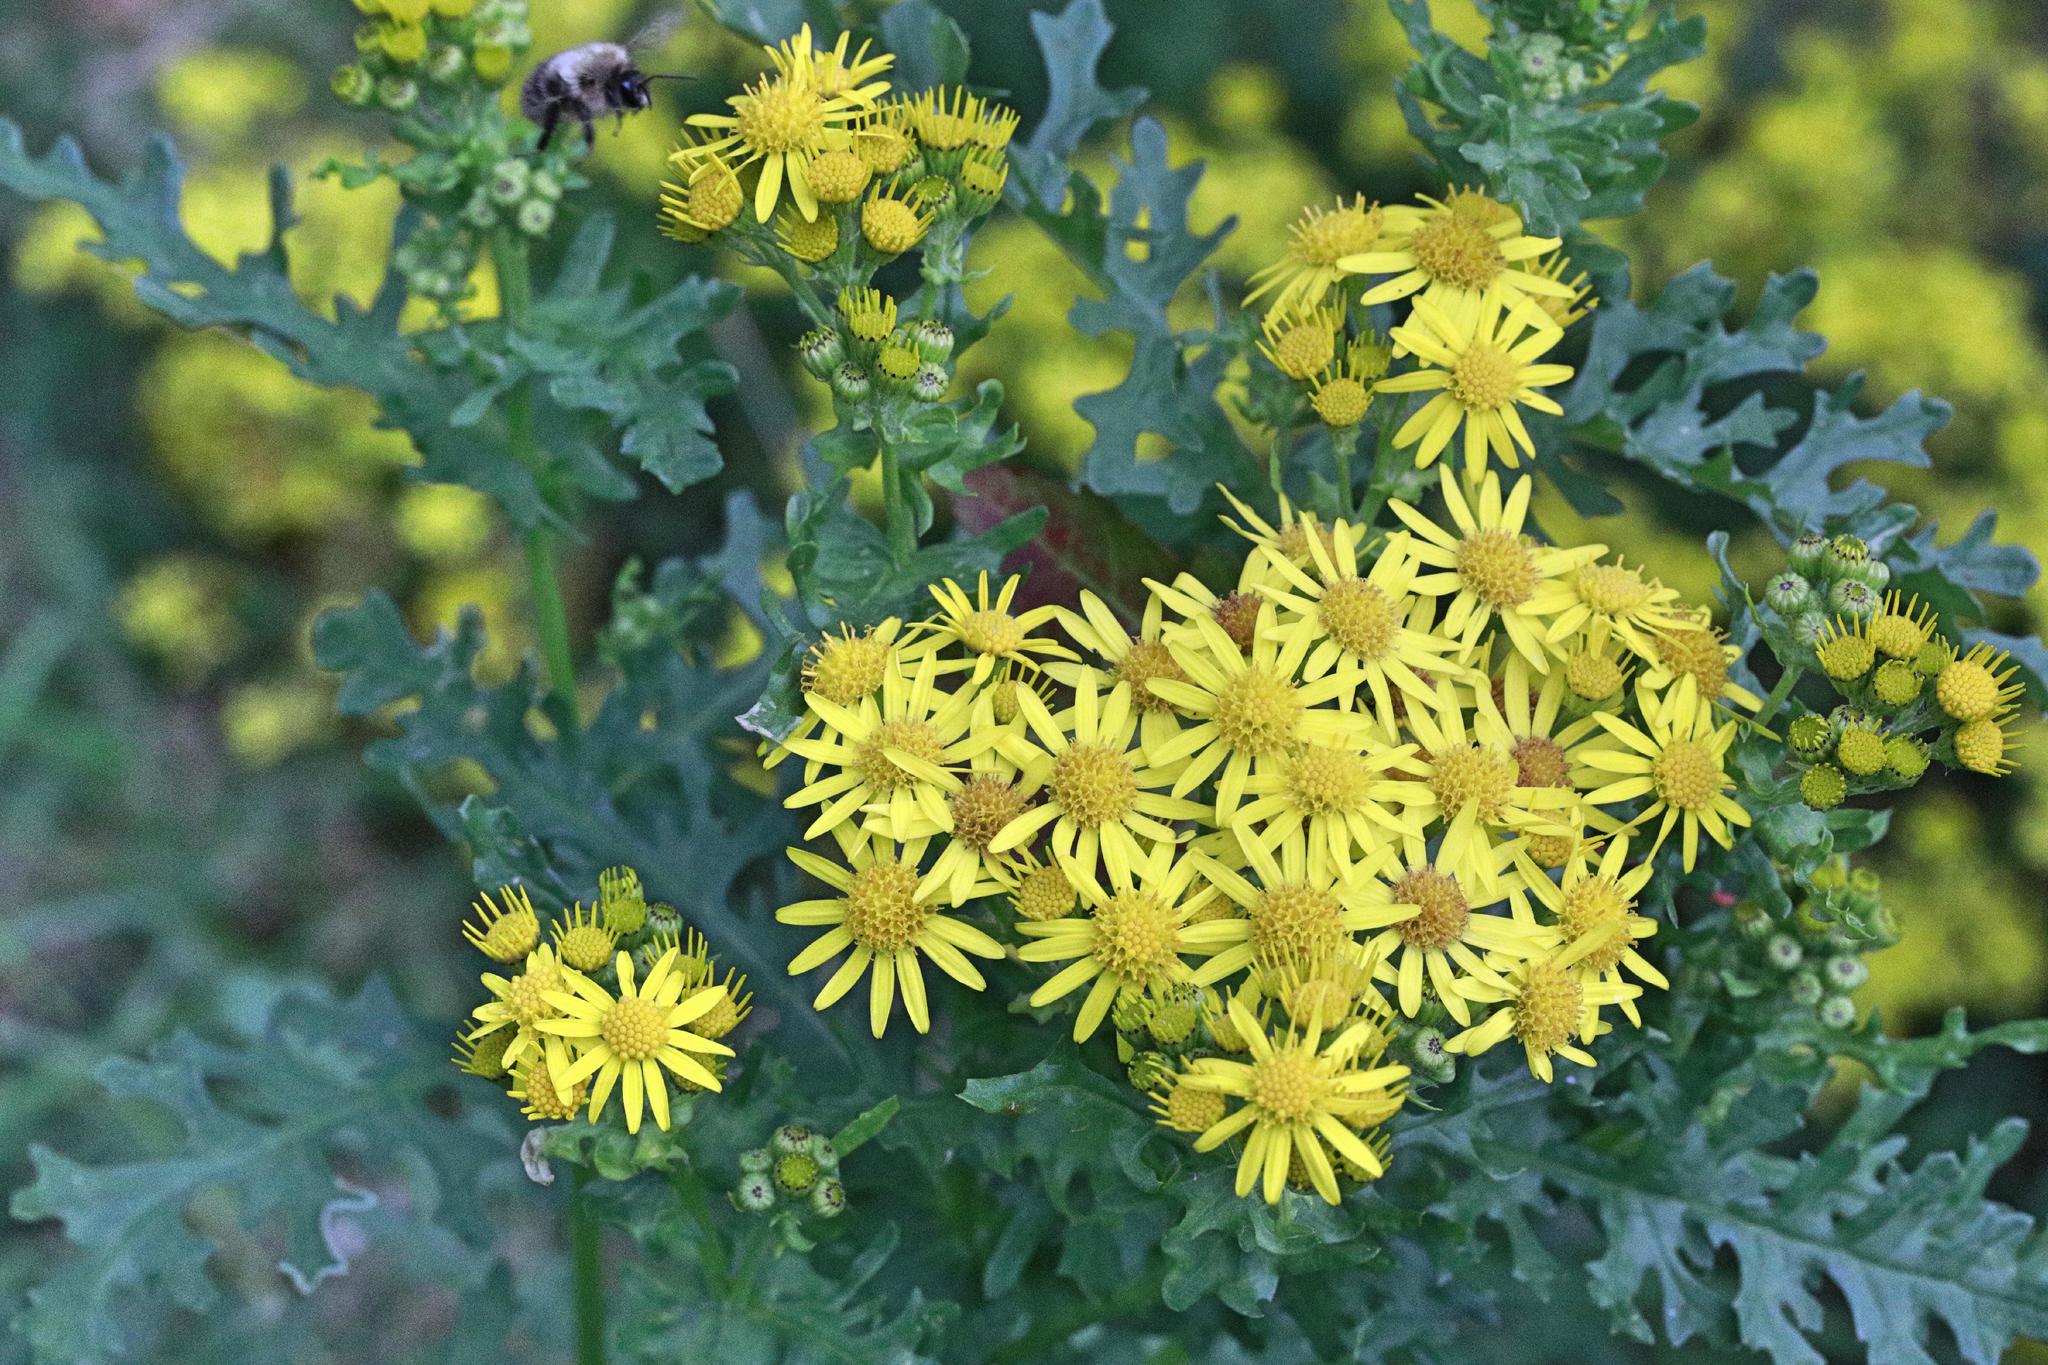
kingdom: Plantae
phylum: Tracheophyta
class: Magnoliopsida
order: Asterales
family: Asteraceae
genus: Jacobaea
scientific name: Jacobaea vulgaris
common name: Stinking willie
